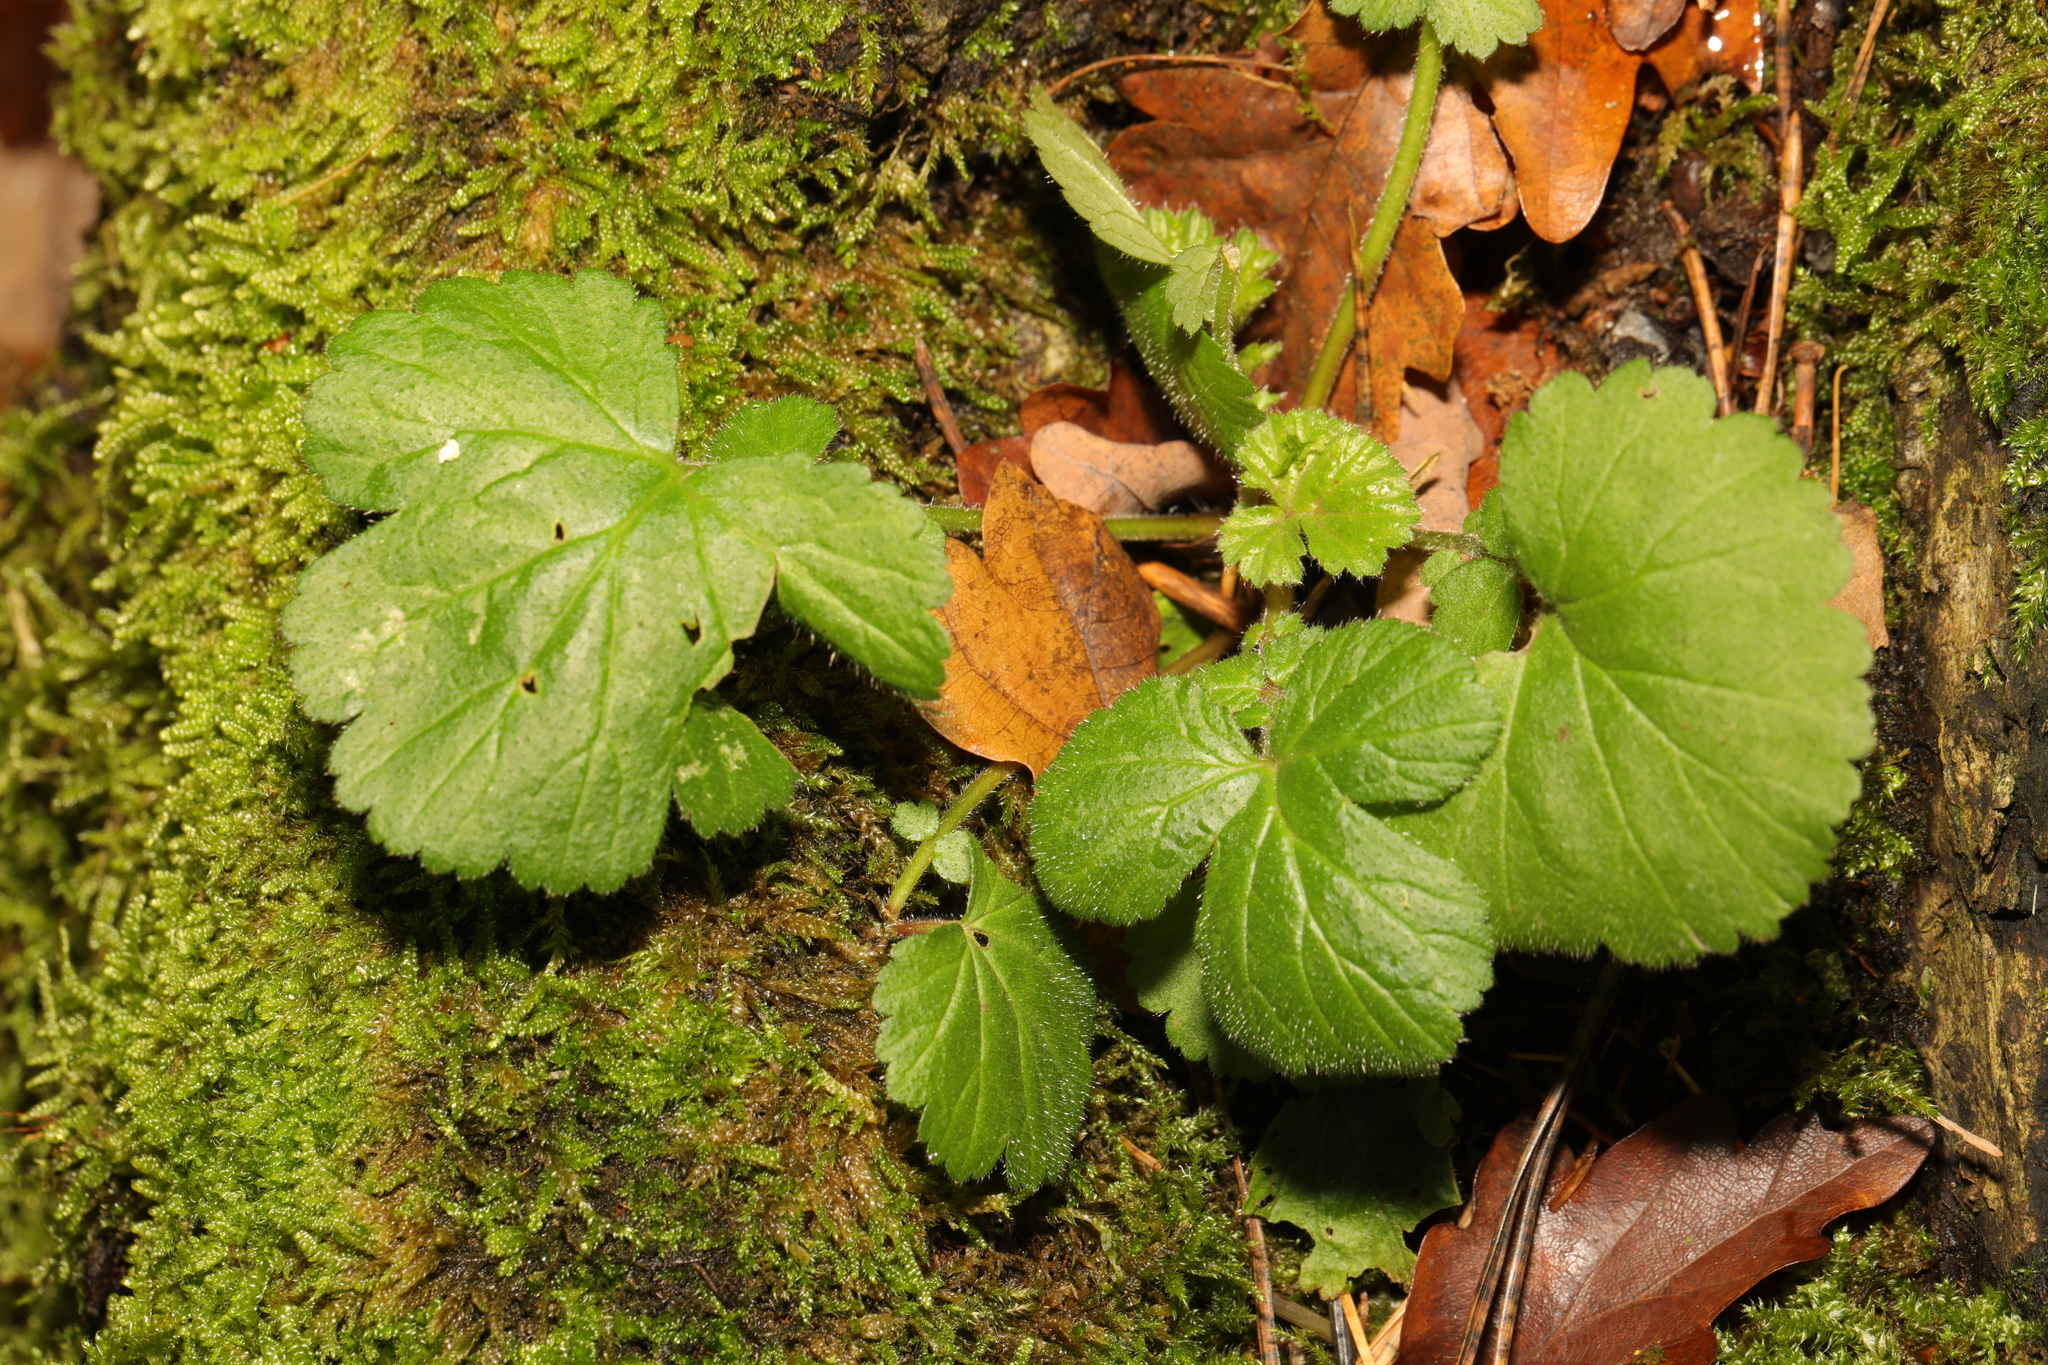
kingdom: Plantae
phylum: Tracheophyta
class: Magnoliopsida
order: Rosales
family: Rosaceae
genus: Geum
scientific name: Geum urbanum
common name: Wood avens
